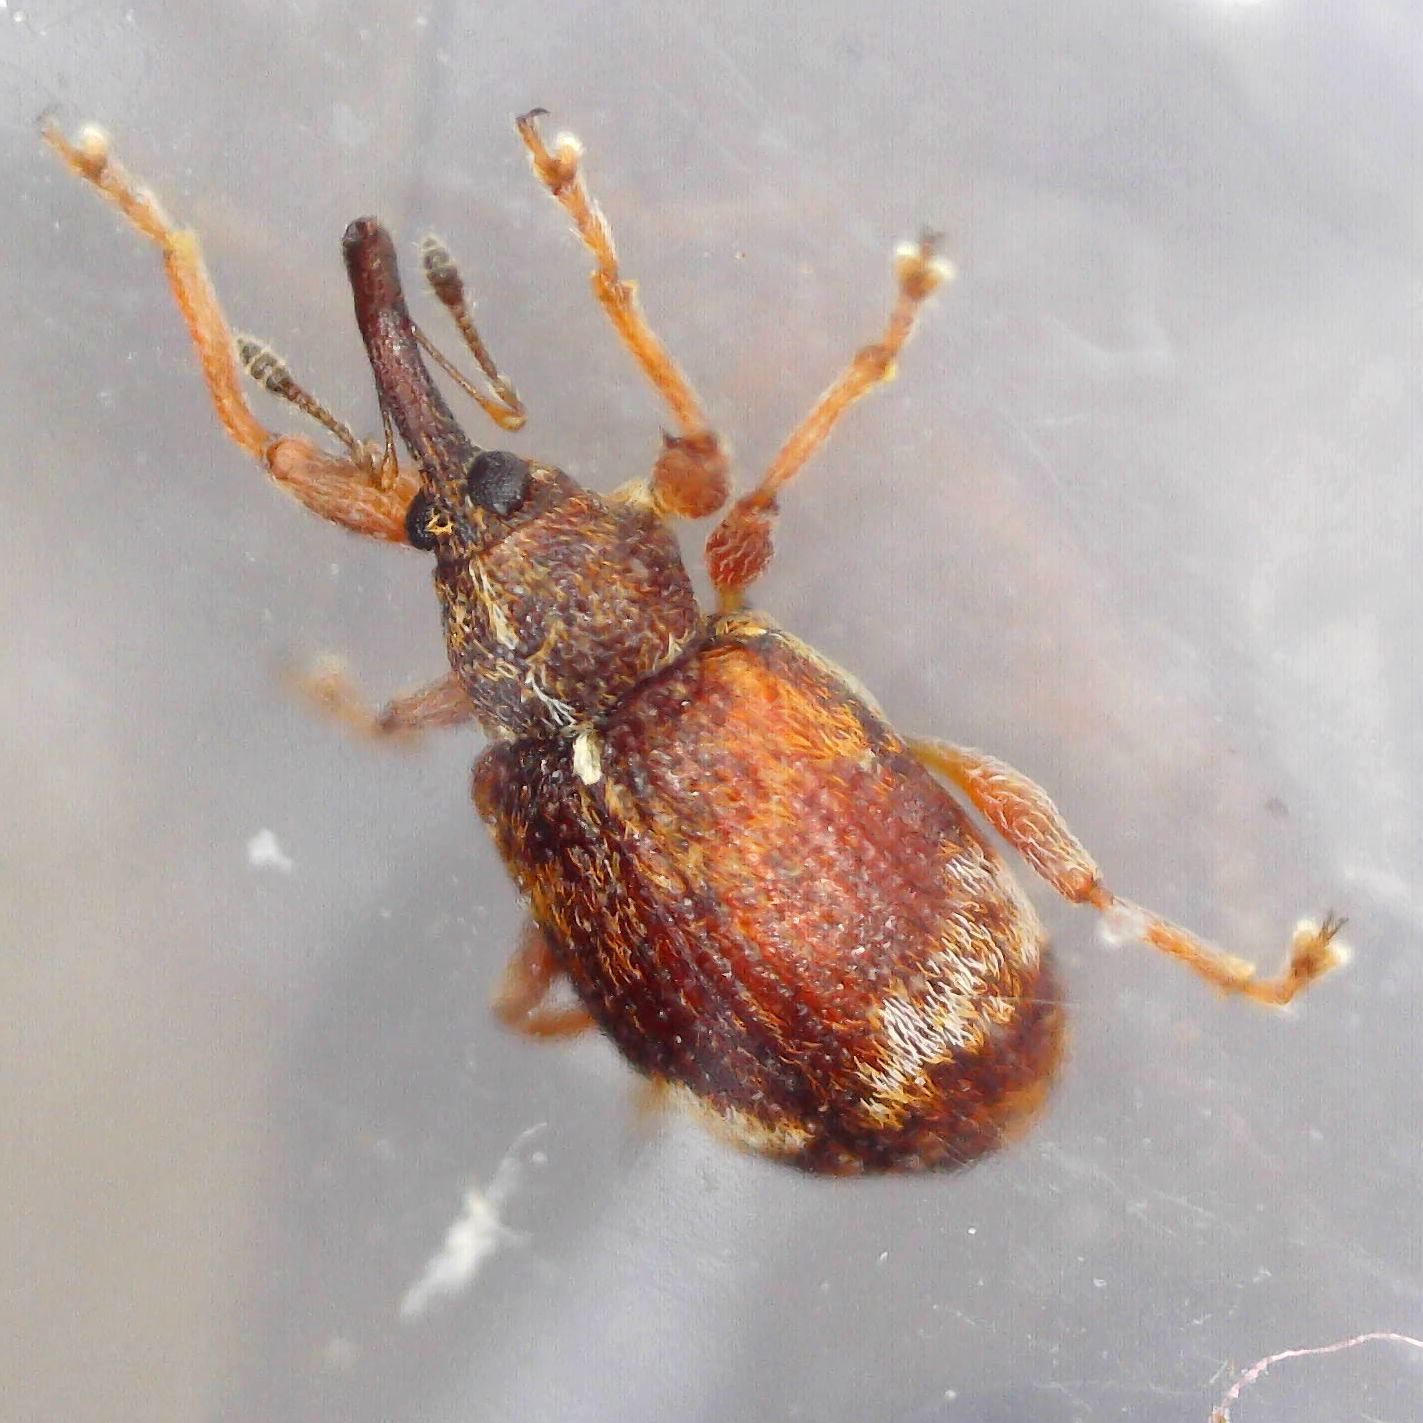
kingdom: Animalia
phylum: Arthropoda
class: Insecta
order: Coleoptera
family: Curculionidae
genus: Anthonomus
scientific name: Anthonomus pedicularius
